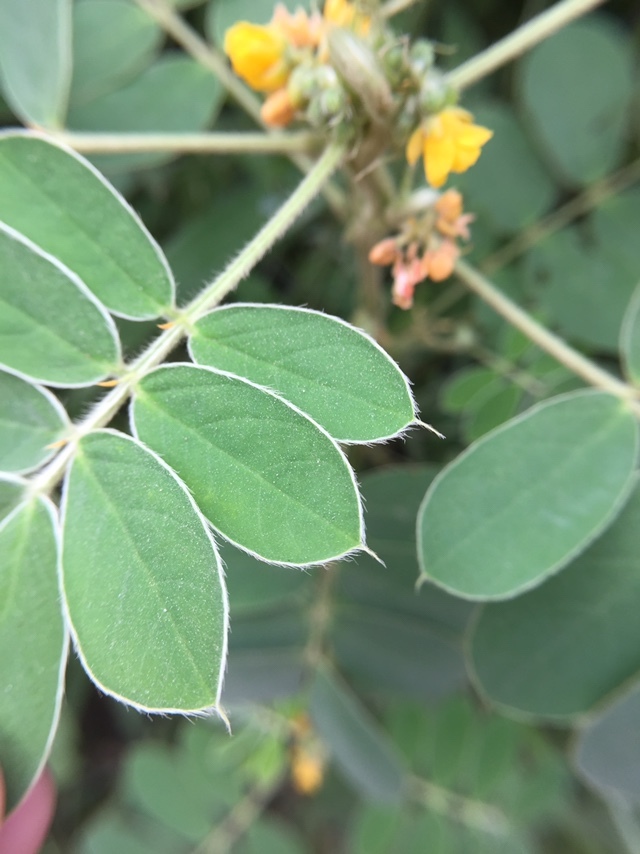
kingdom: Plantae
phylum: Tracheophyta
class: Magnoliopsida
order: Fabales
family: Fabaceae
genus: Senna
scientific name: Senna uniflora
